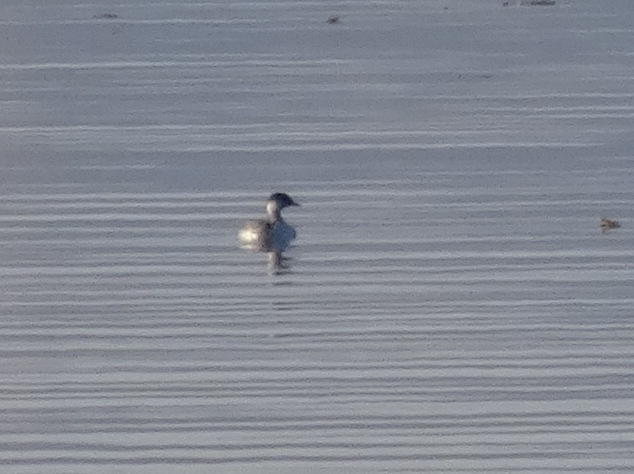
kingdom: Animalia
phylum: Chordata
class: Aves
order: Podicipediformes
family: Podicipedidae
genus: Podiceps
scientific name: Podiceps auritus
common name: Horned grebe
